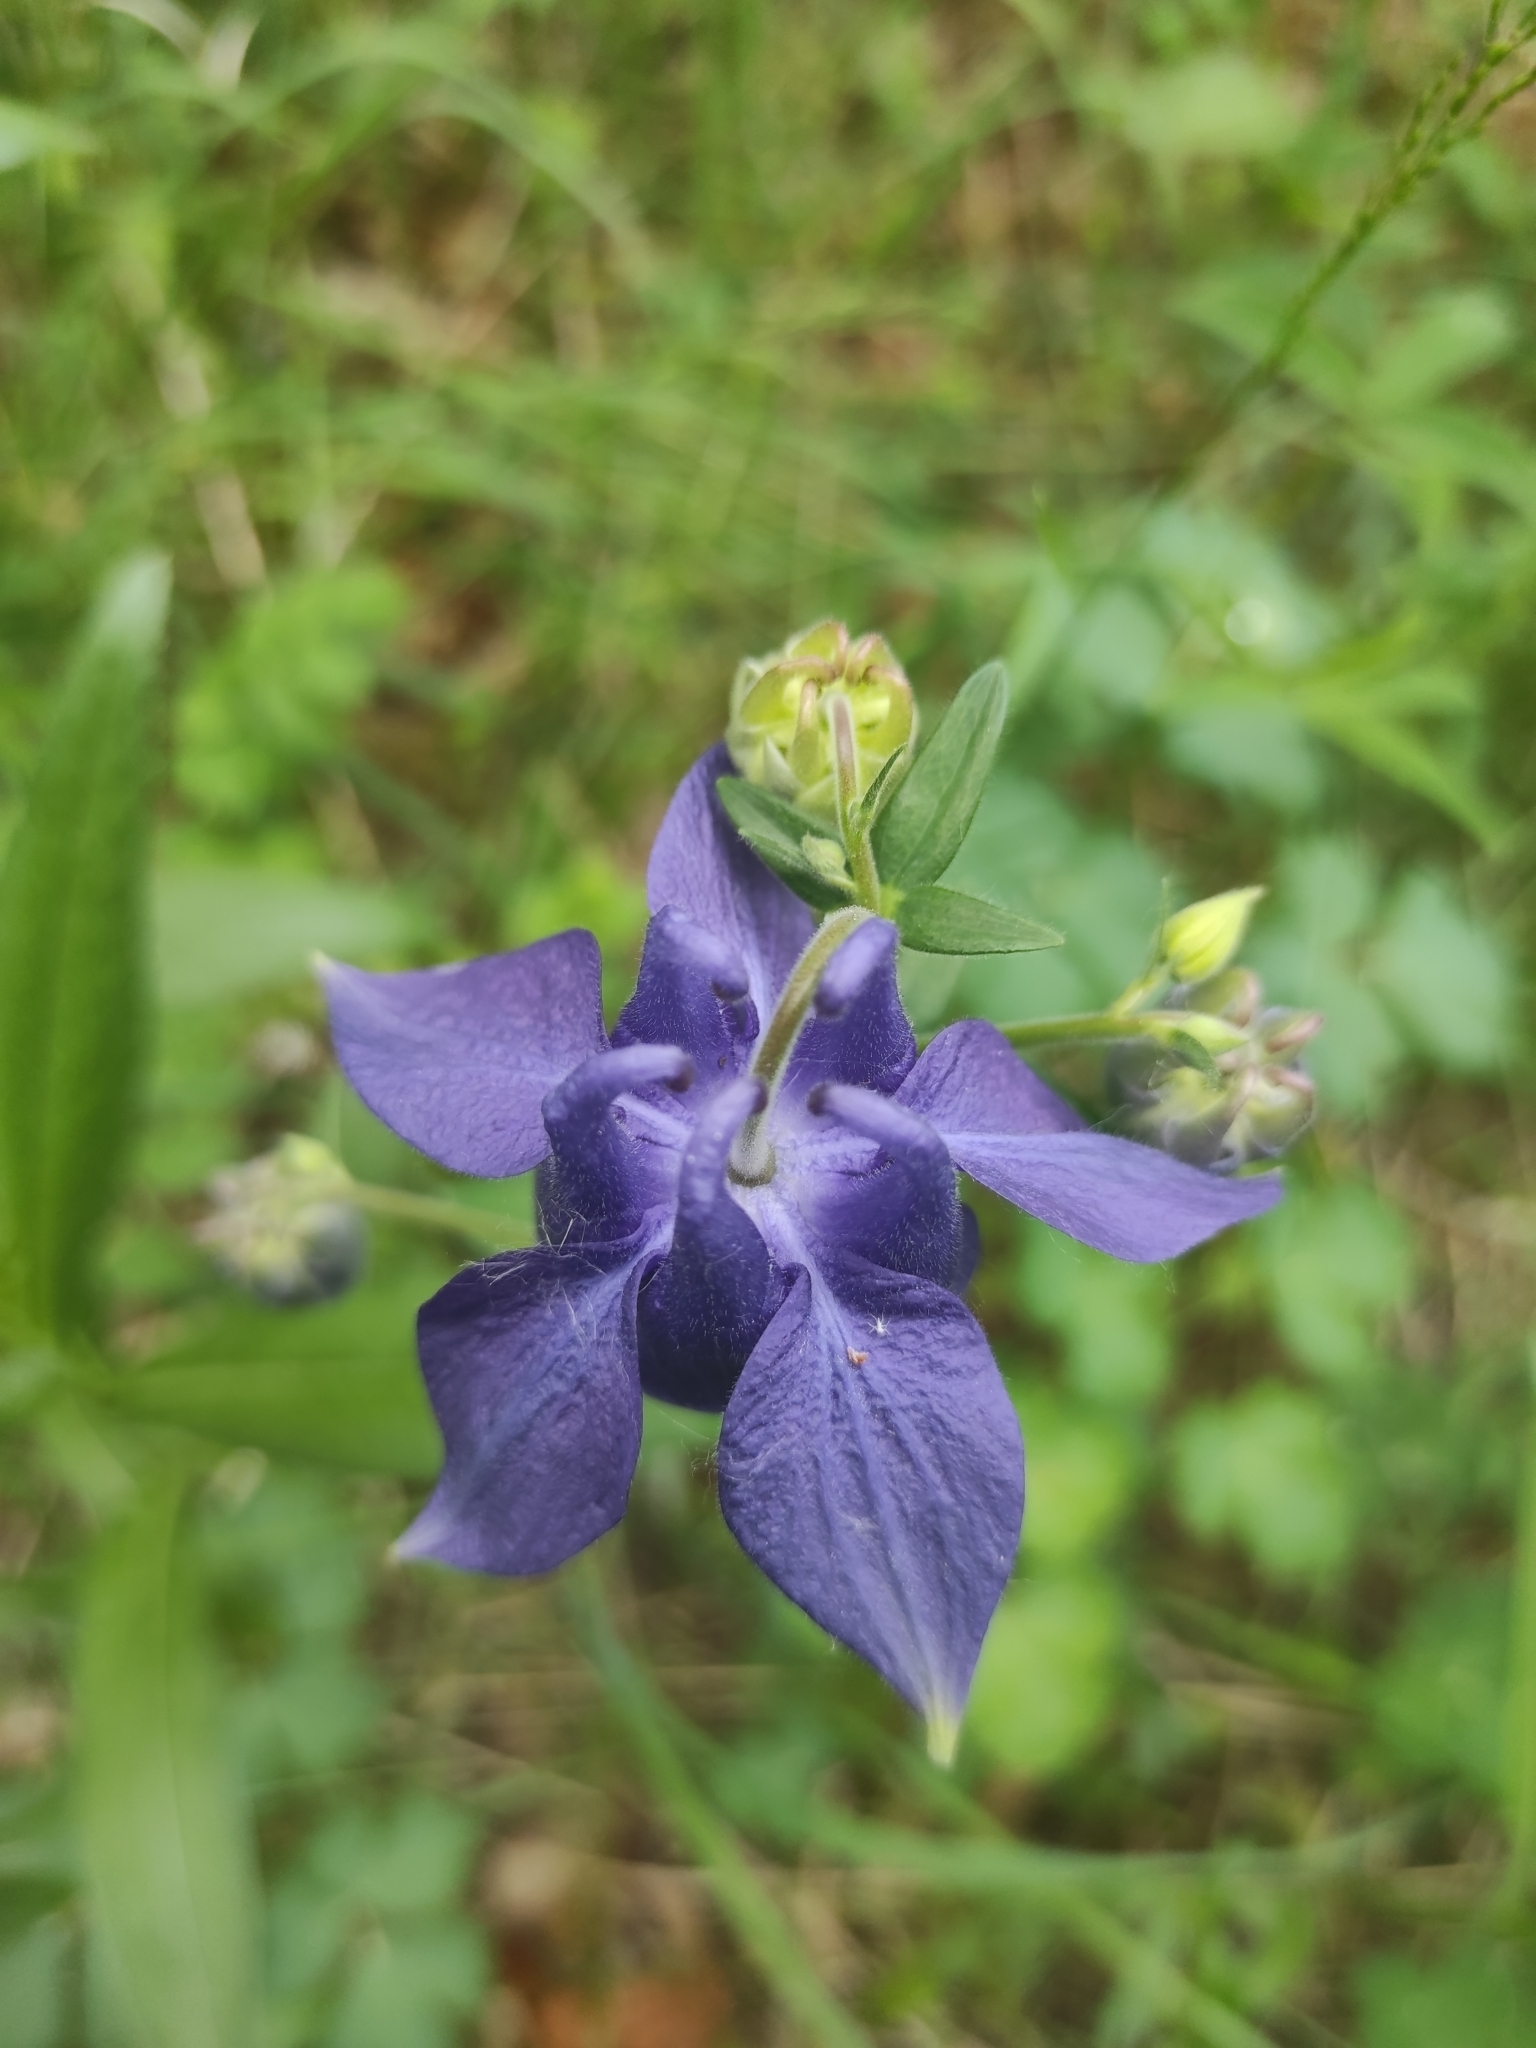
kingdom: Plantae
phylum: Tracheophyta
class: Magnoliopsida
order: Ranunculales
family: Ranunculaceae
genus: Aquilegia
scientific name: Aquilegia vulgaris
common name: Columbine
